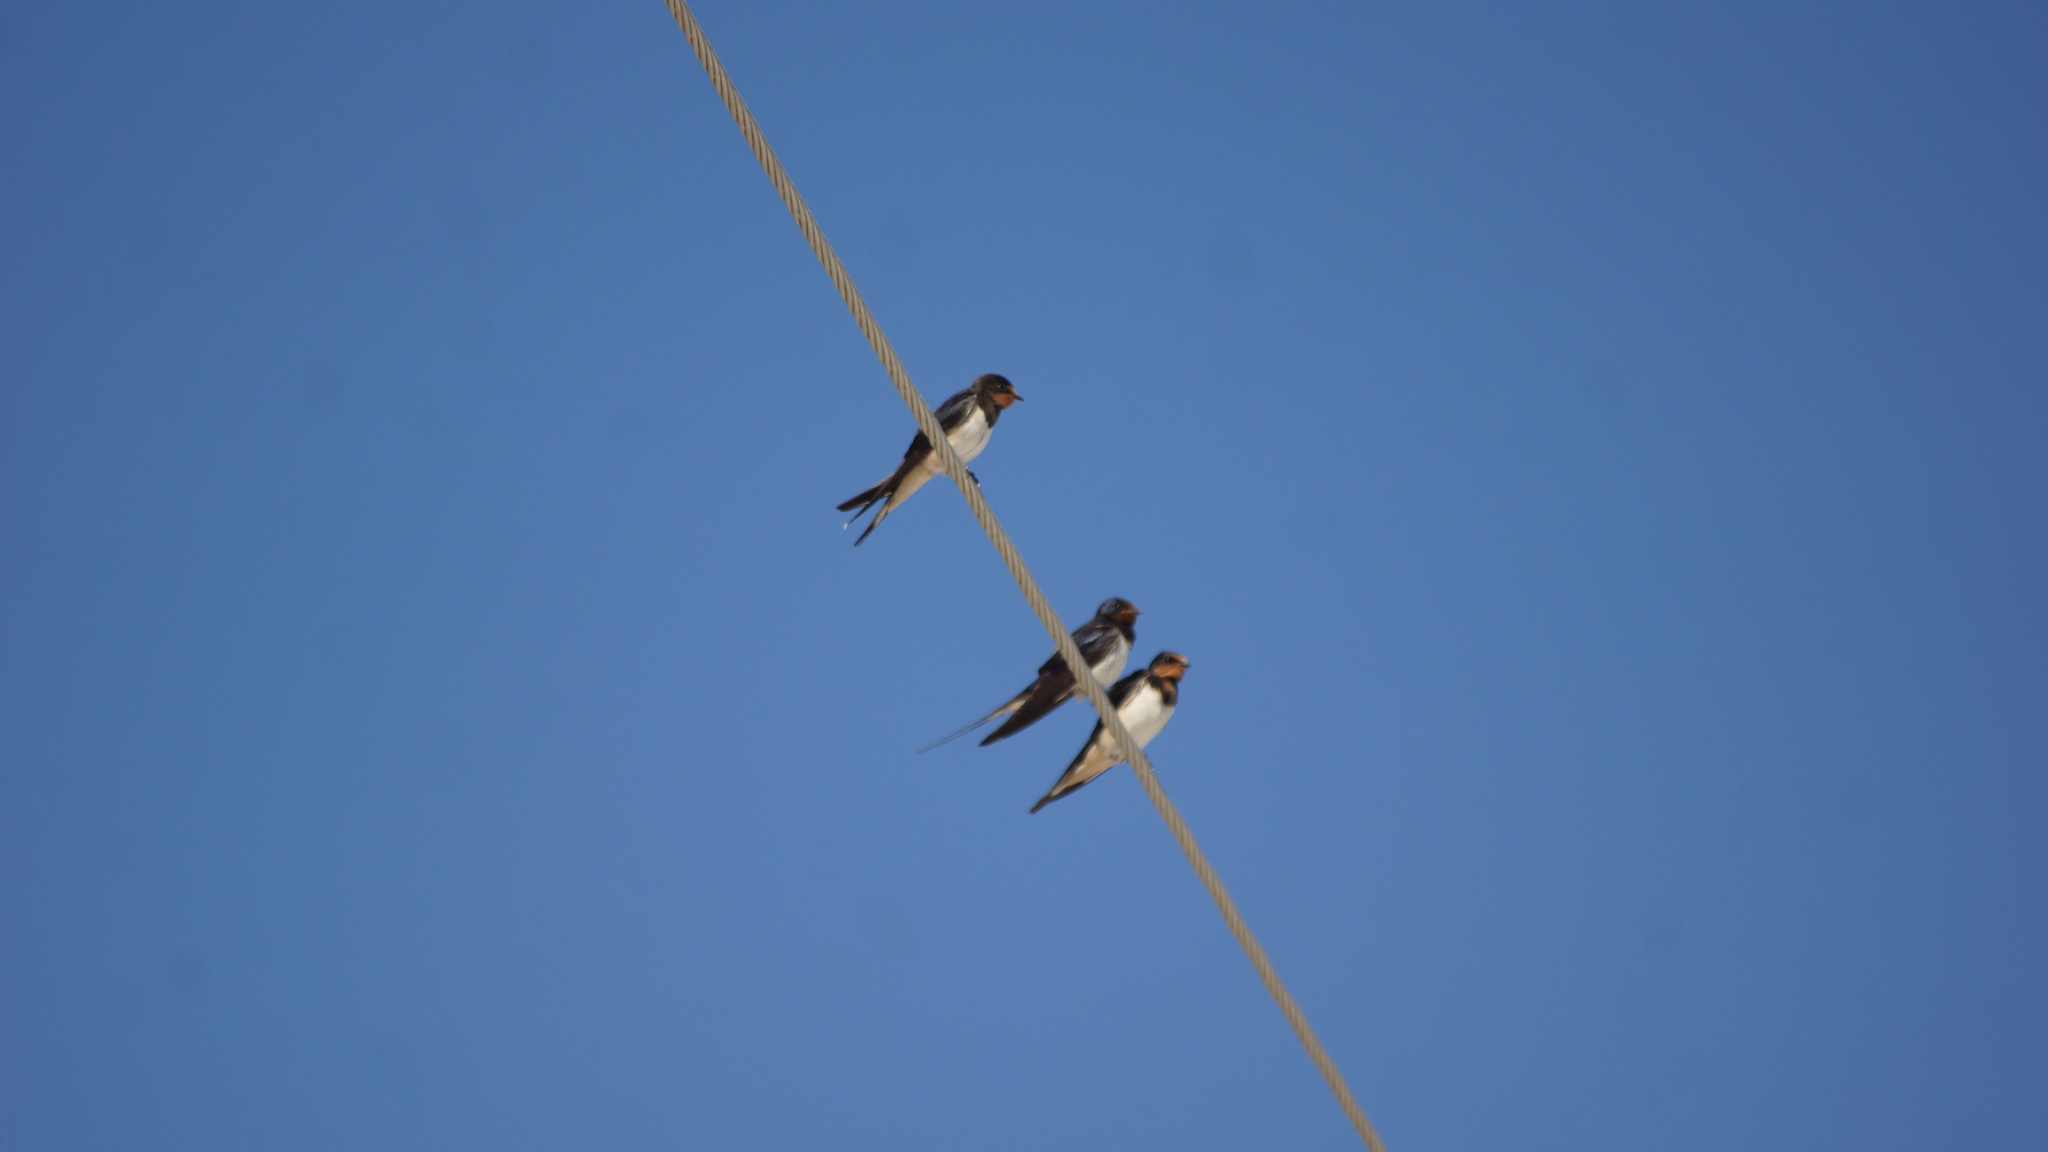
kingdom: Animalia
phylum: Chordata
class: Aves
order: Passeriformes
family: Hirundinidae
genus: Hirundo
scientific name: Hirundo rustica
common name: Barn swallow
